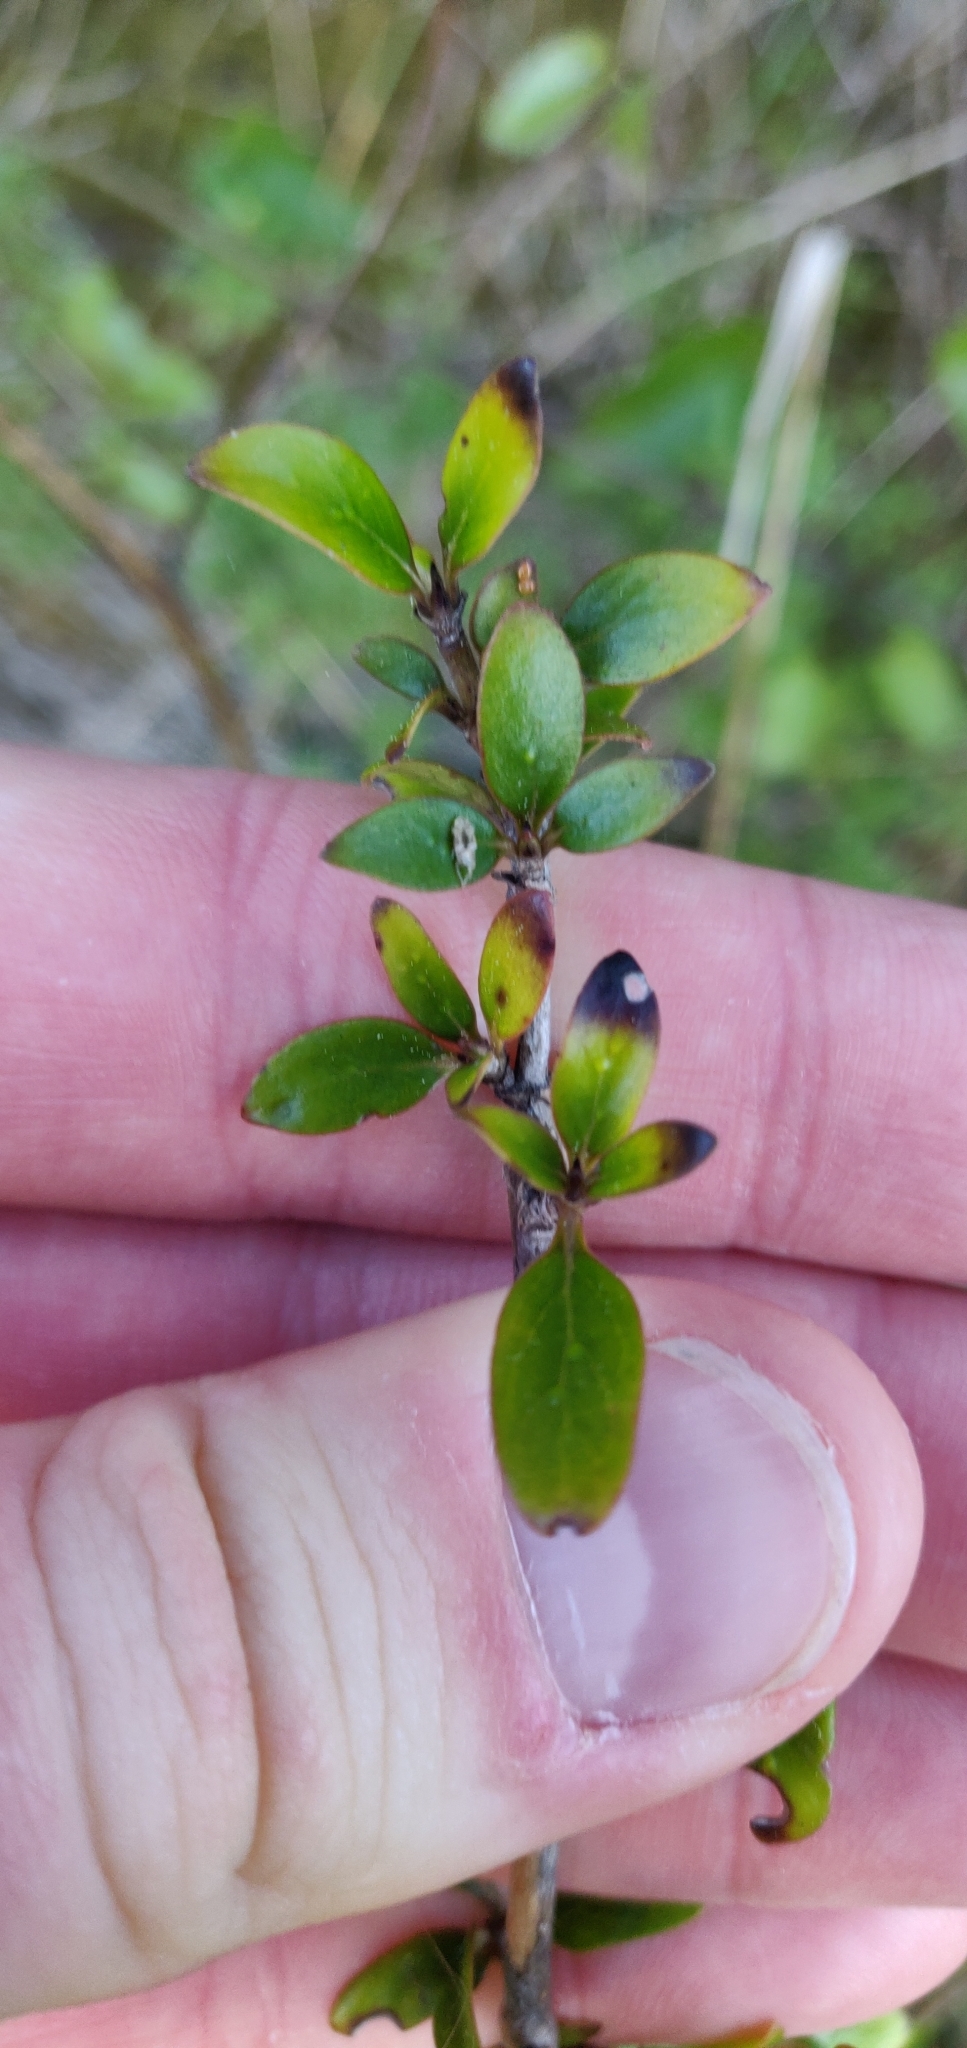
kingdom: Plantae
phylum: Tracheophyta
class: Magnoliopsida
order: Gentianales
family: Rubiaceae
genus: Coprosma
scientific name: Coprosma cunninghamii
